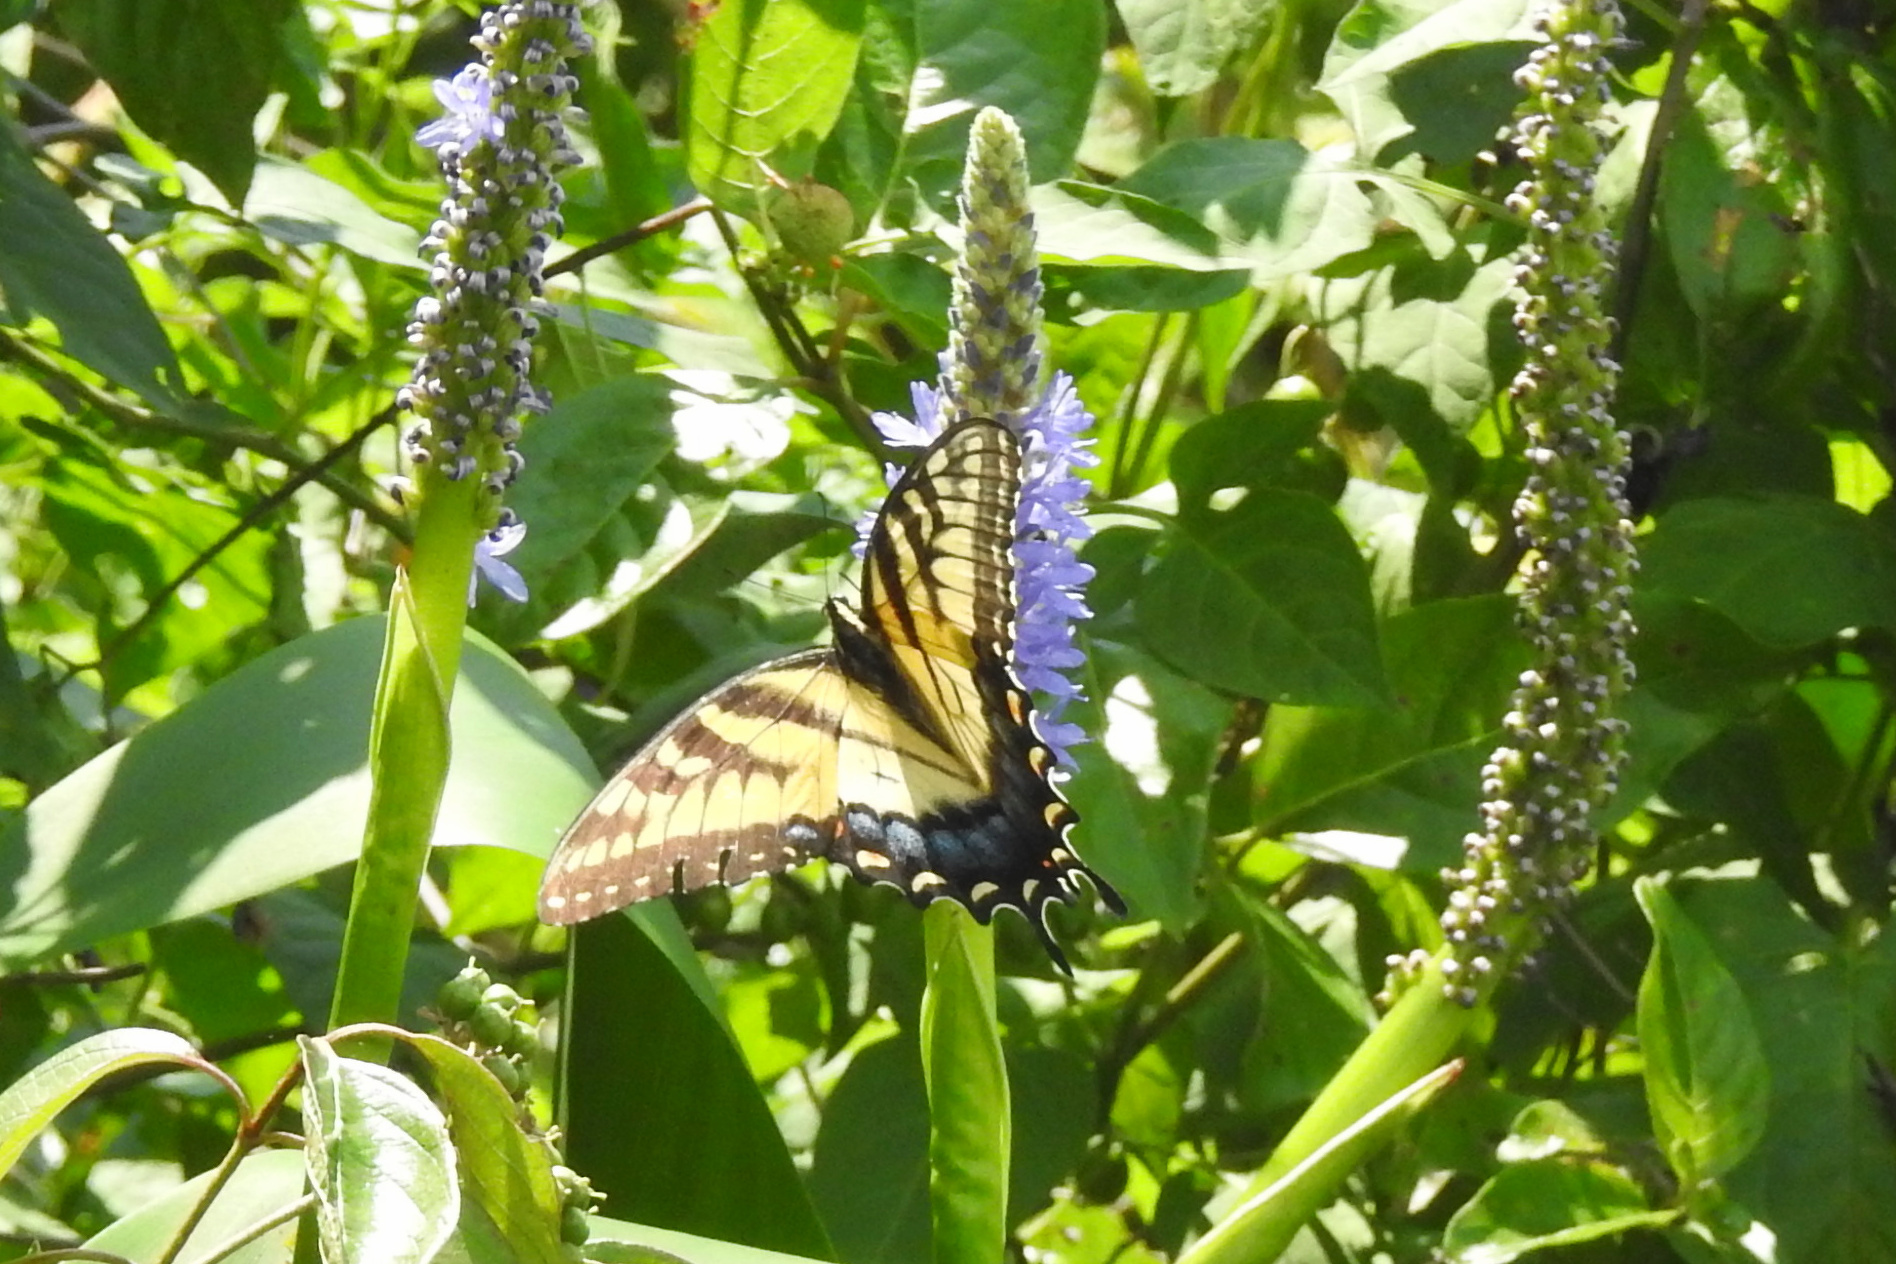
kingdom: Animalia
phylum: Arthropoda
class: Insecta
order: Lepidoptera
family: Papilionidae
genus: Papilio
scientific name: Papilio glaucus
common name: Tiger swallowtail
